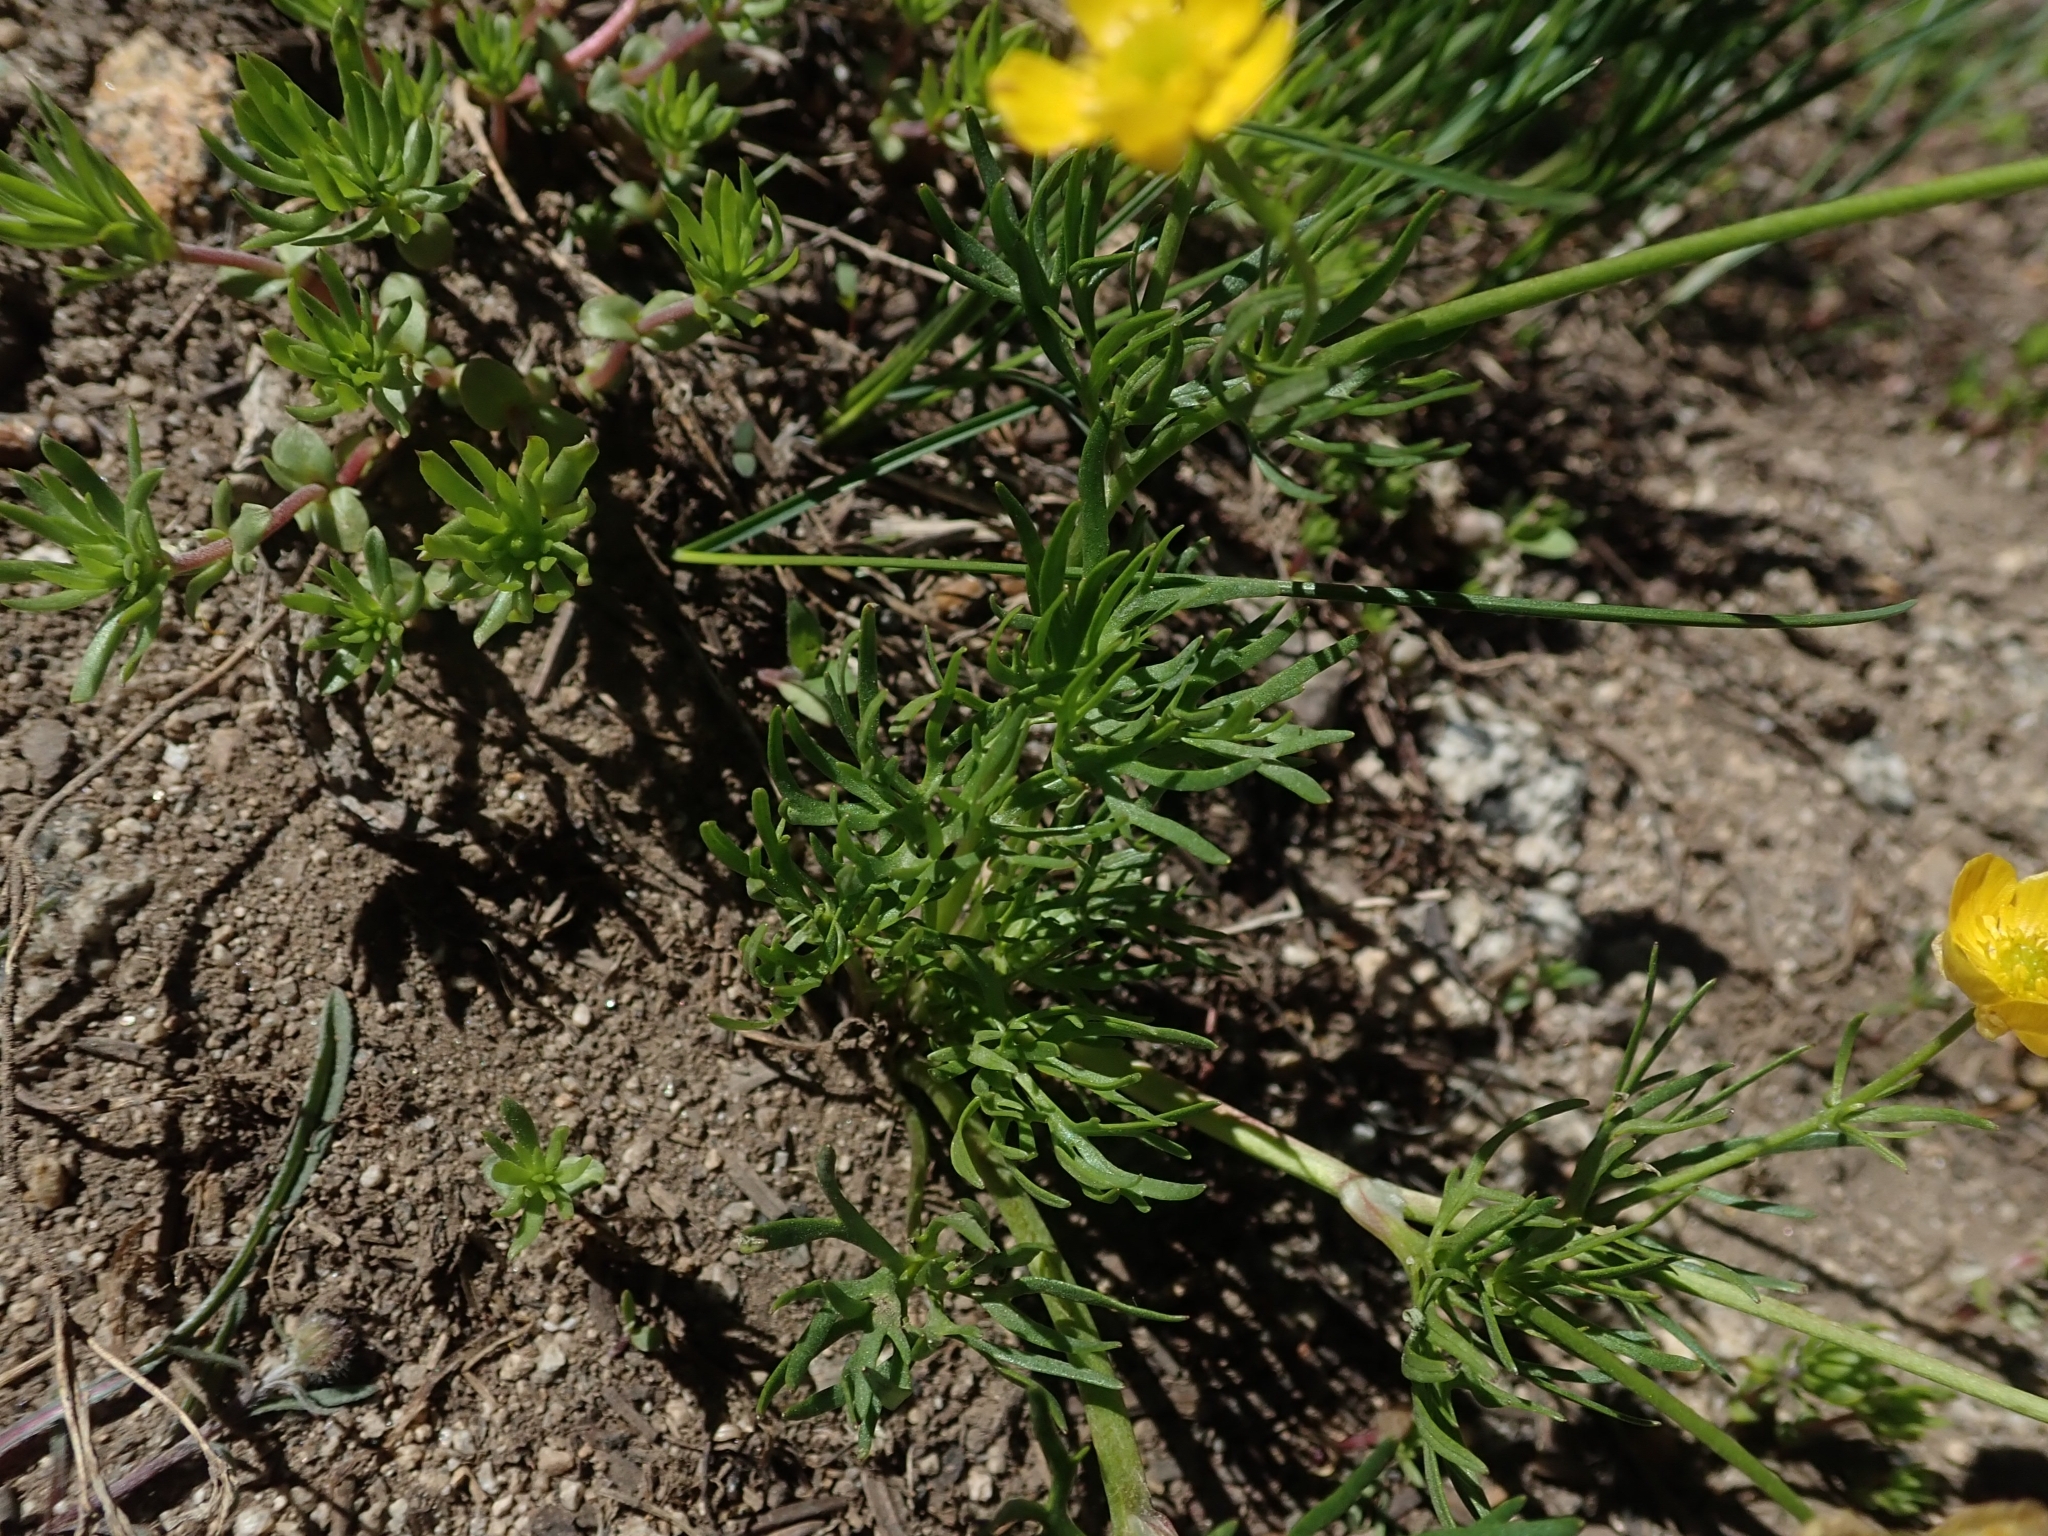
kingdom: Plantae
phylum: Tracheophyta
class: Magnoliopsida
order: Ranunculales
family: Ranunculaceae
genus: Ranunculus
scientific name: Ranunculus adoneus
